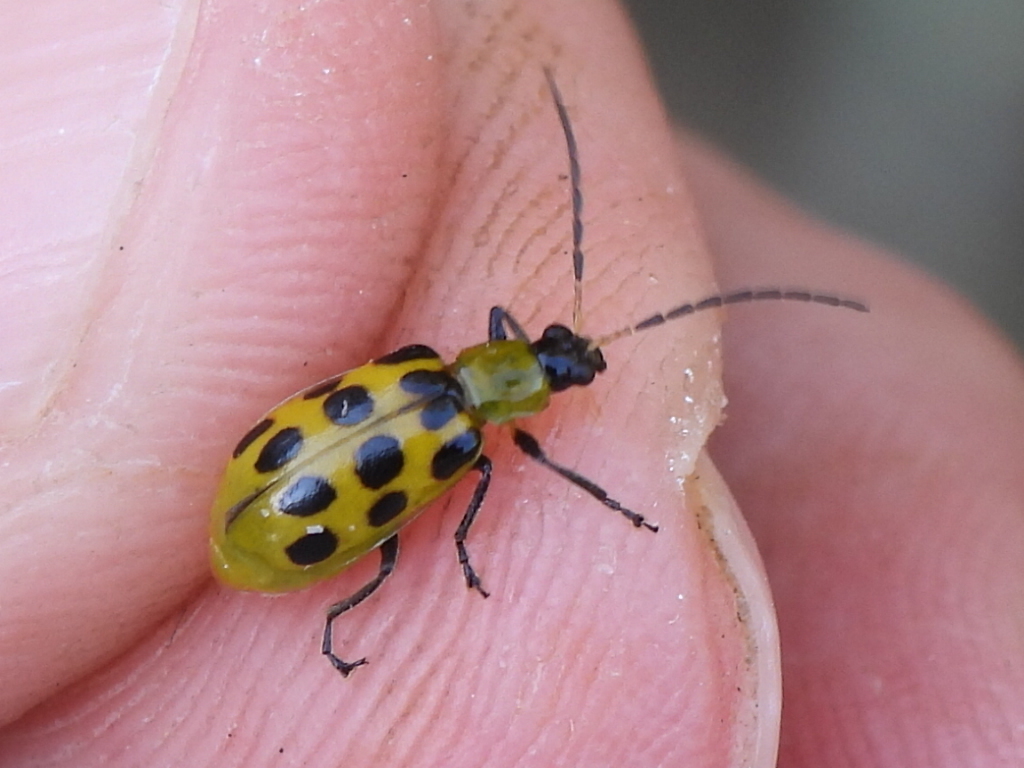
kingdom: Animalia
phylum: Arthropoda
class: Insecta
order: Coleoptera
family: Chrysomelidae
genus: Diabrotica
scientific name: Diabrotica undecimpunctata
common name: Spotted cucumber beetle
